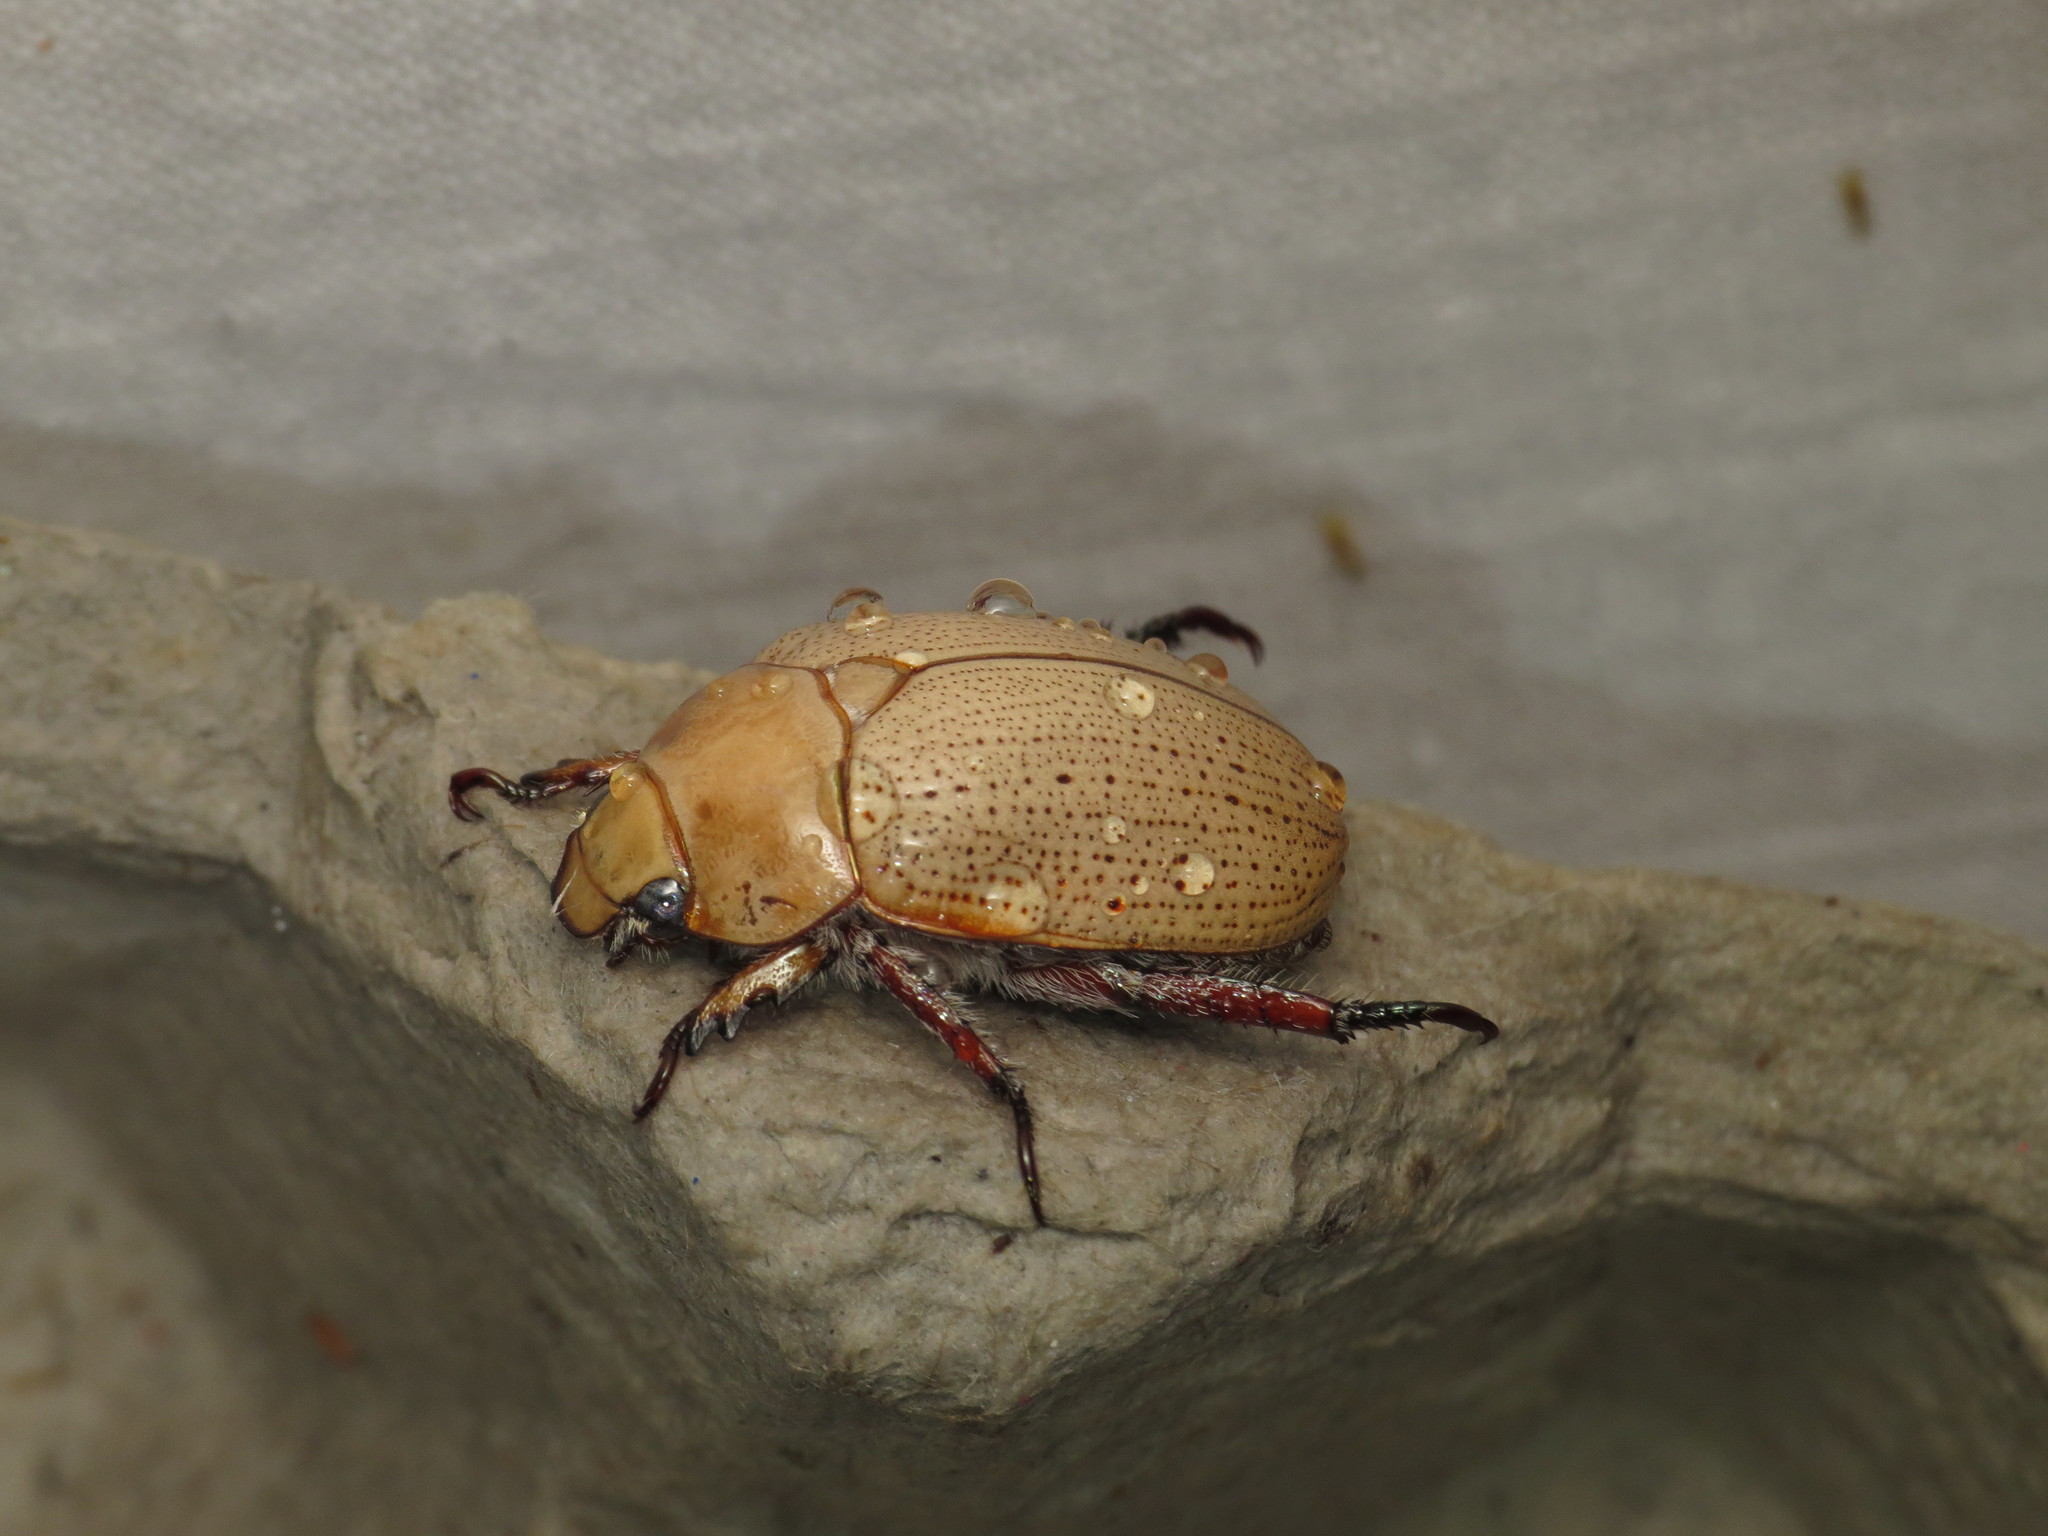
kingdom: Animalia
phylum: Arthropoda
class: Insecta
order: Coleoptera
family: Scarabaeidae
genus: Anoplognathus
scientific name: Anoplognathus pallidicollis
